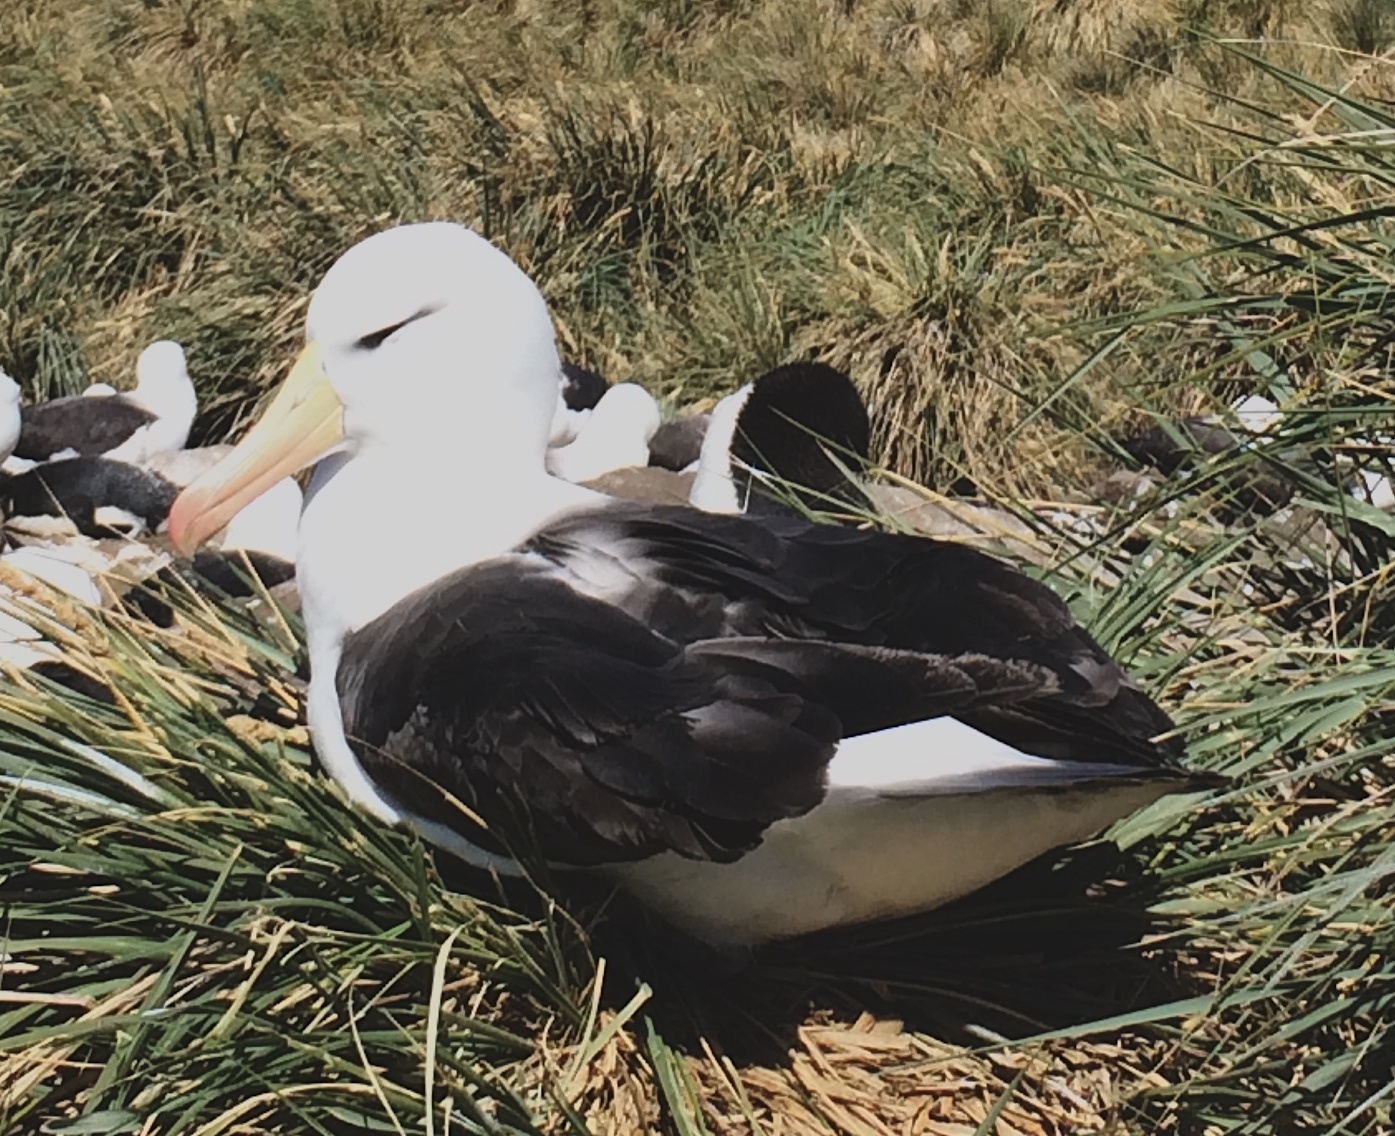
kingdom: Animalia
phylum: Chordata
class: Aves
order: Procellariiformes
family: Diomedeidae
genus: Thalassarche
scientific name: Thalassarche melanophris
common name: Black-browed albatross
